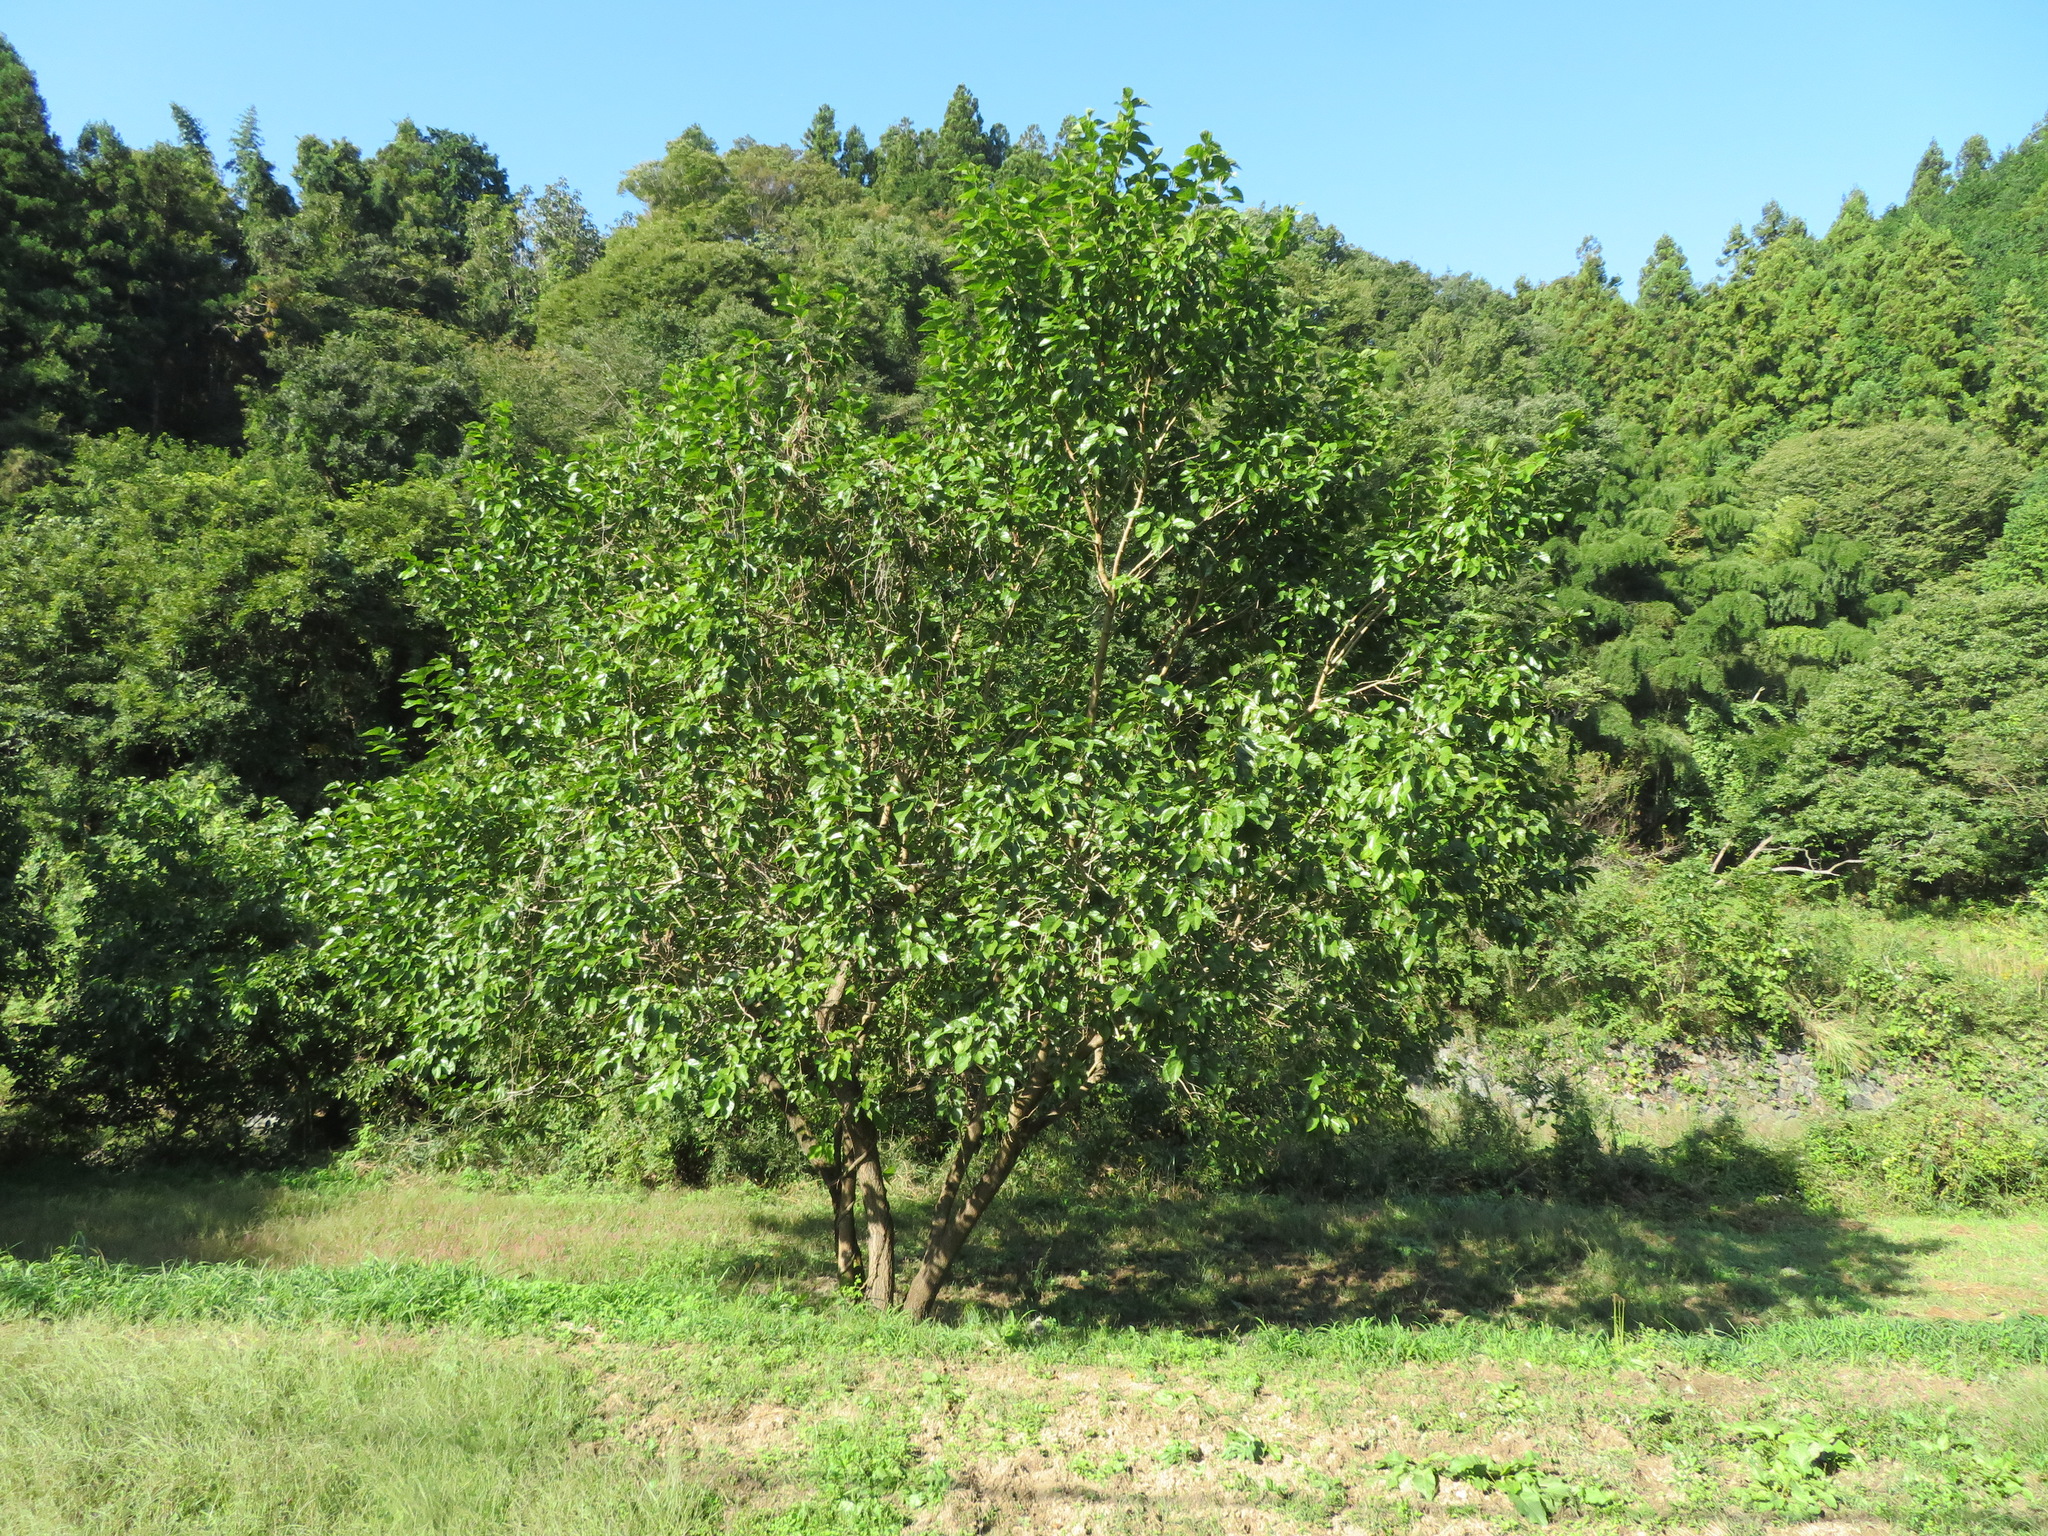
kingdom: Plantae
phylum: Tracheophyta
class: Magnoliopsida
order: Rosales
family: Moraceae
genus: Morus
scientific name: Morus alba
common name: White mulberry
